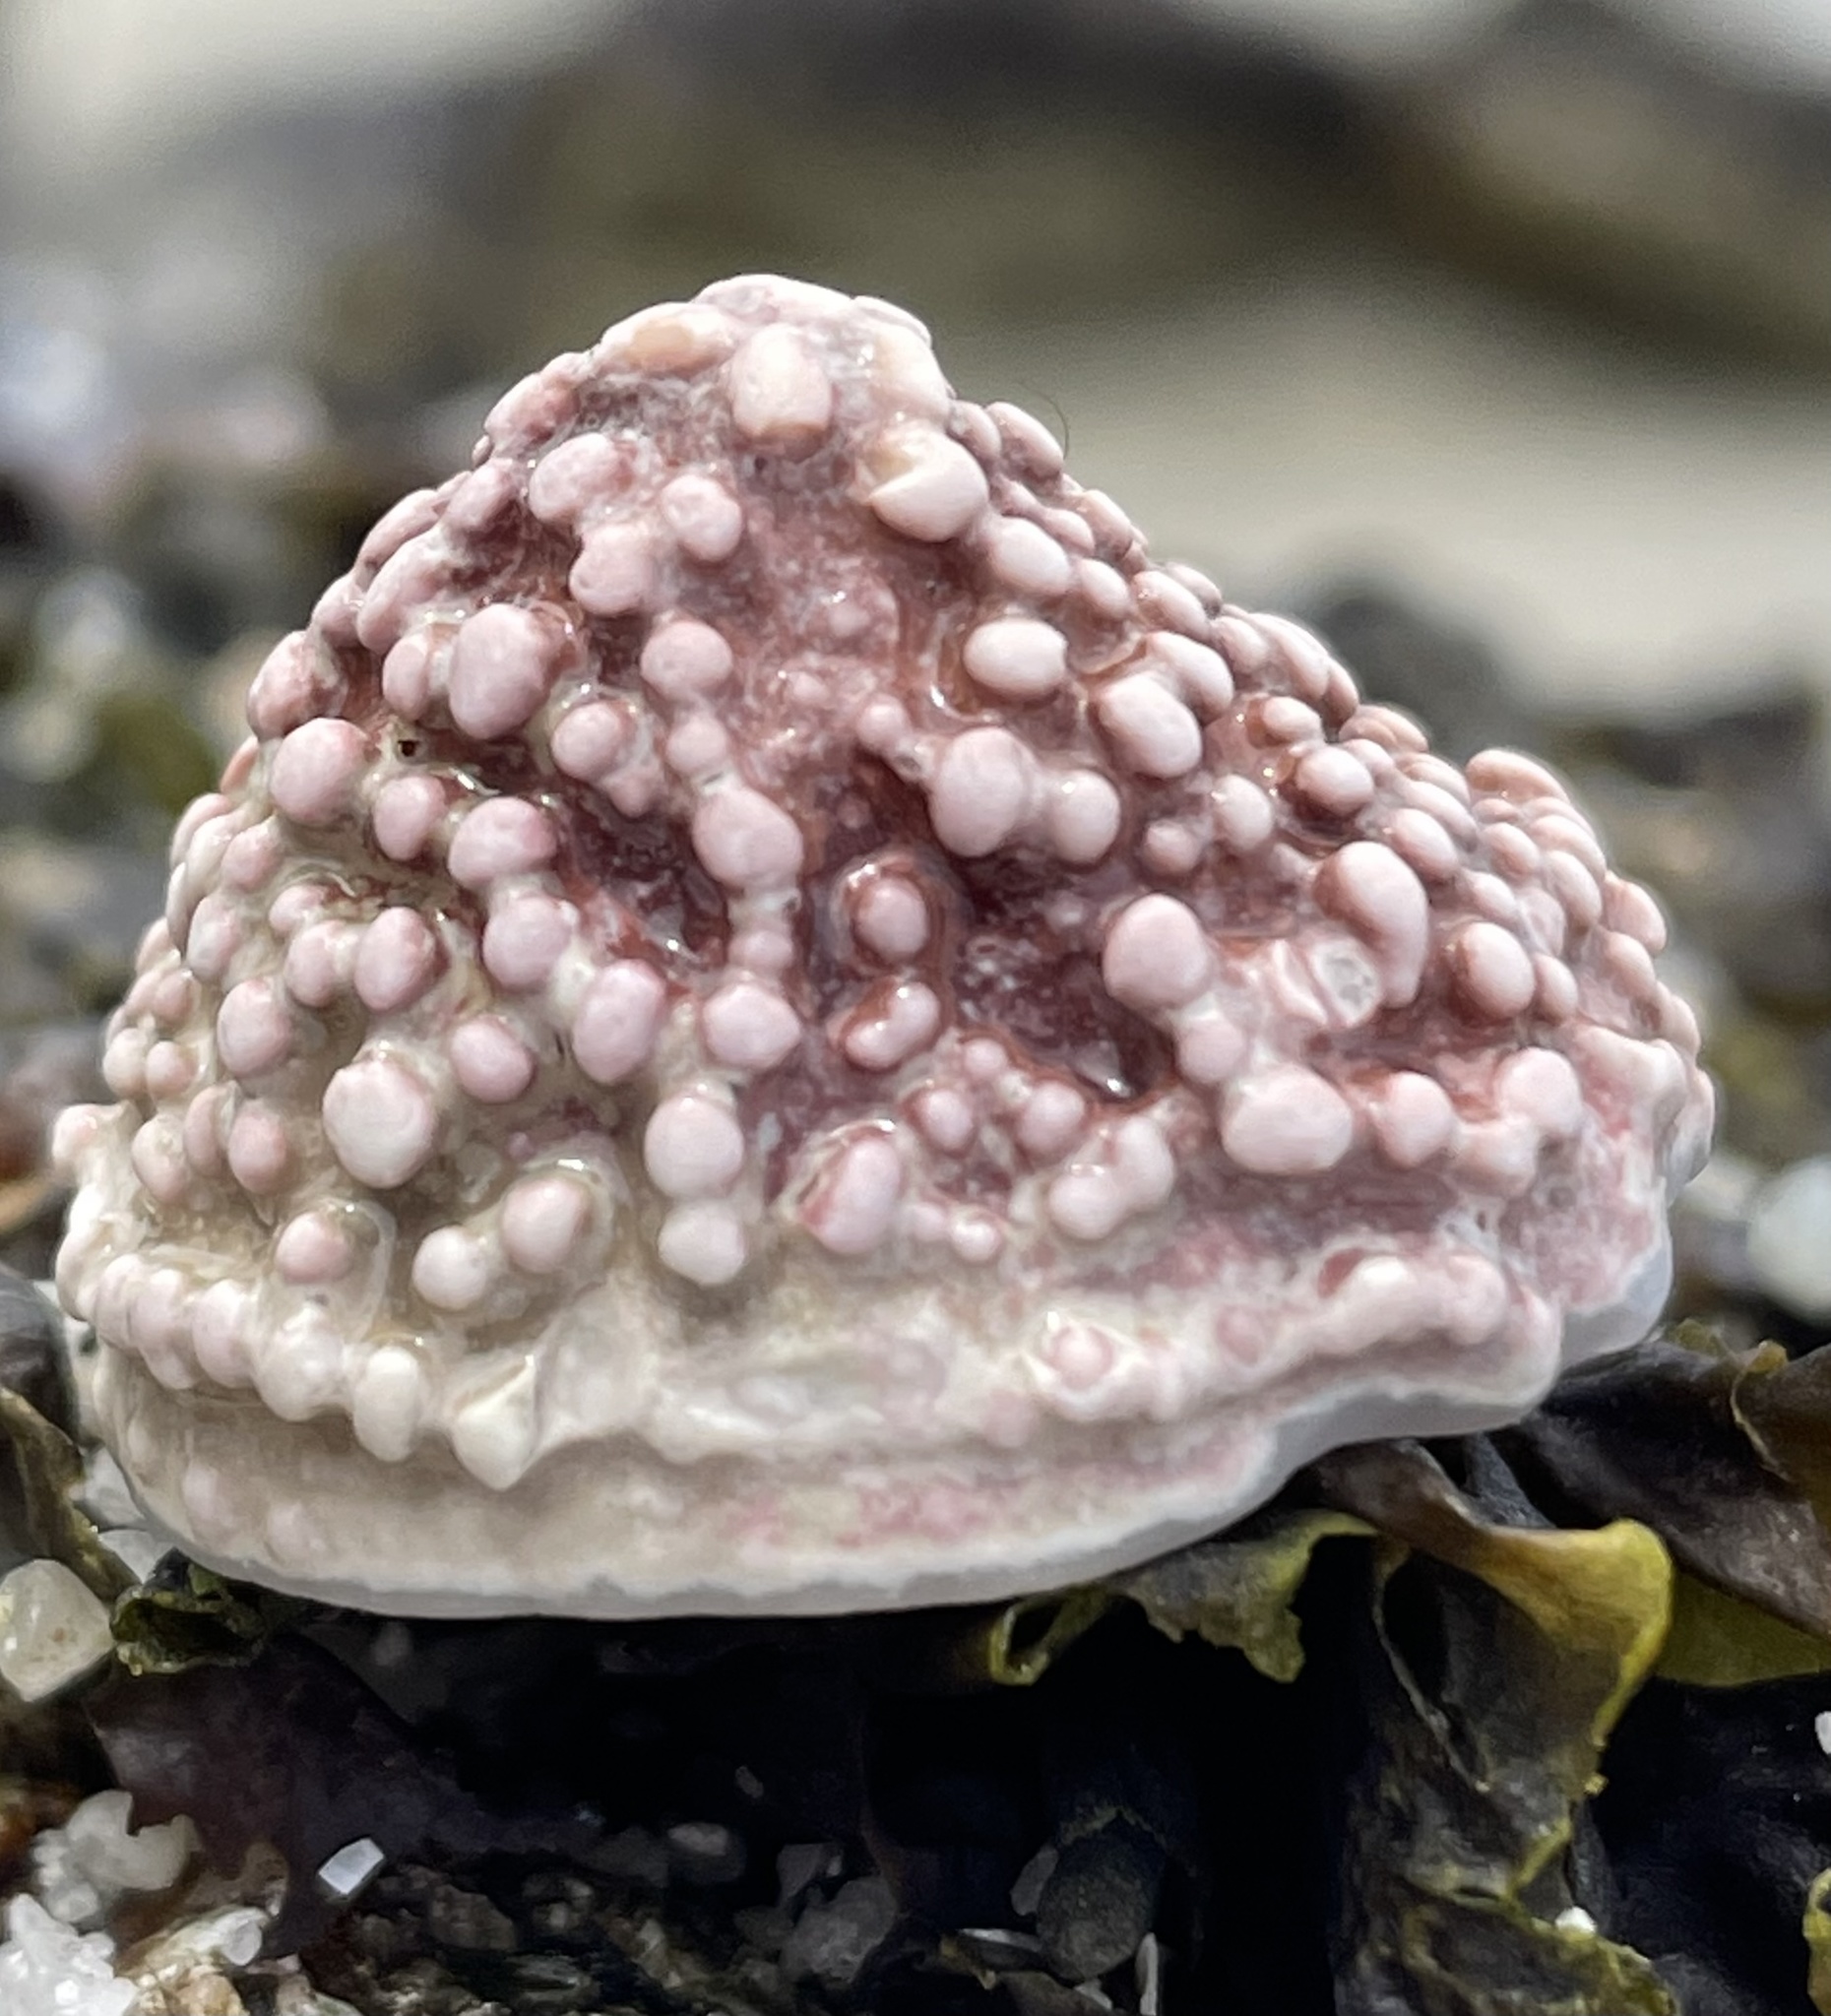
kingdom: Animalia
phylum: Mollusca
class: Gastropoda
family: Acmaeidae
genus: Acmaea
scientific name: Acmaea mitra
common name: Pacific white cap limpet
